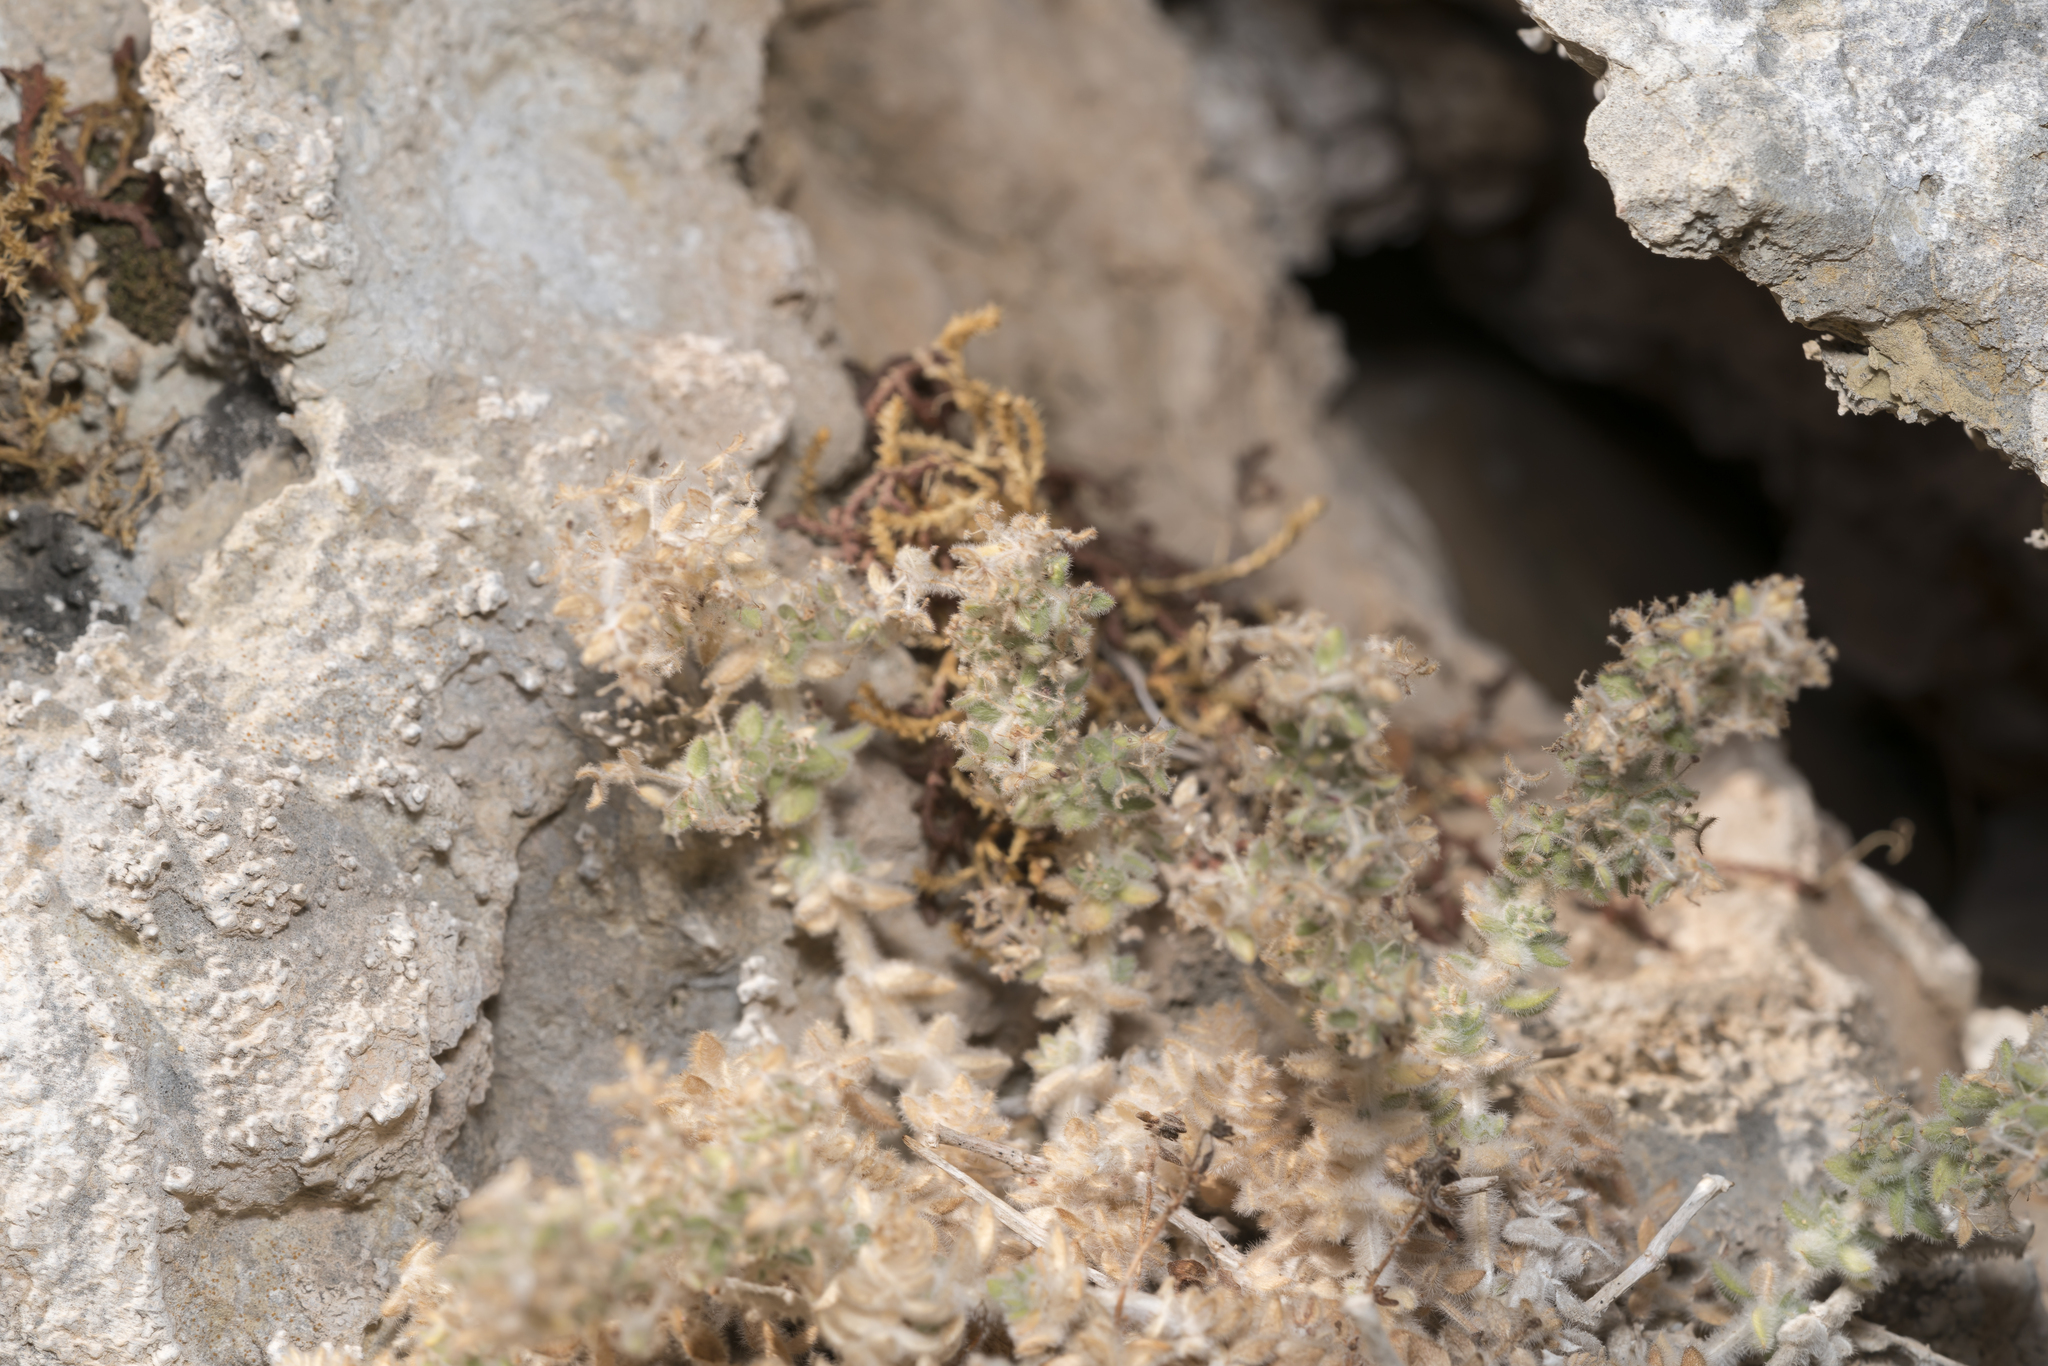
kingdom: Plantae
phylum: Tracheophyta
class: Magnoliopsida
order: Gentianales
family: Rubiaceae
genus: Galium
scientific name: Galium canum
